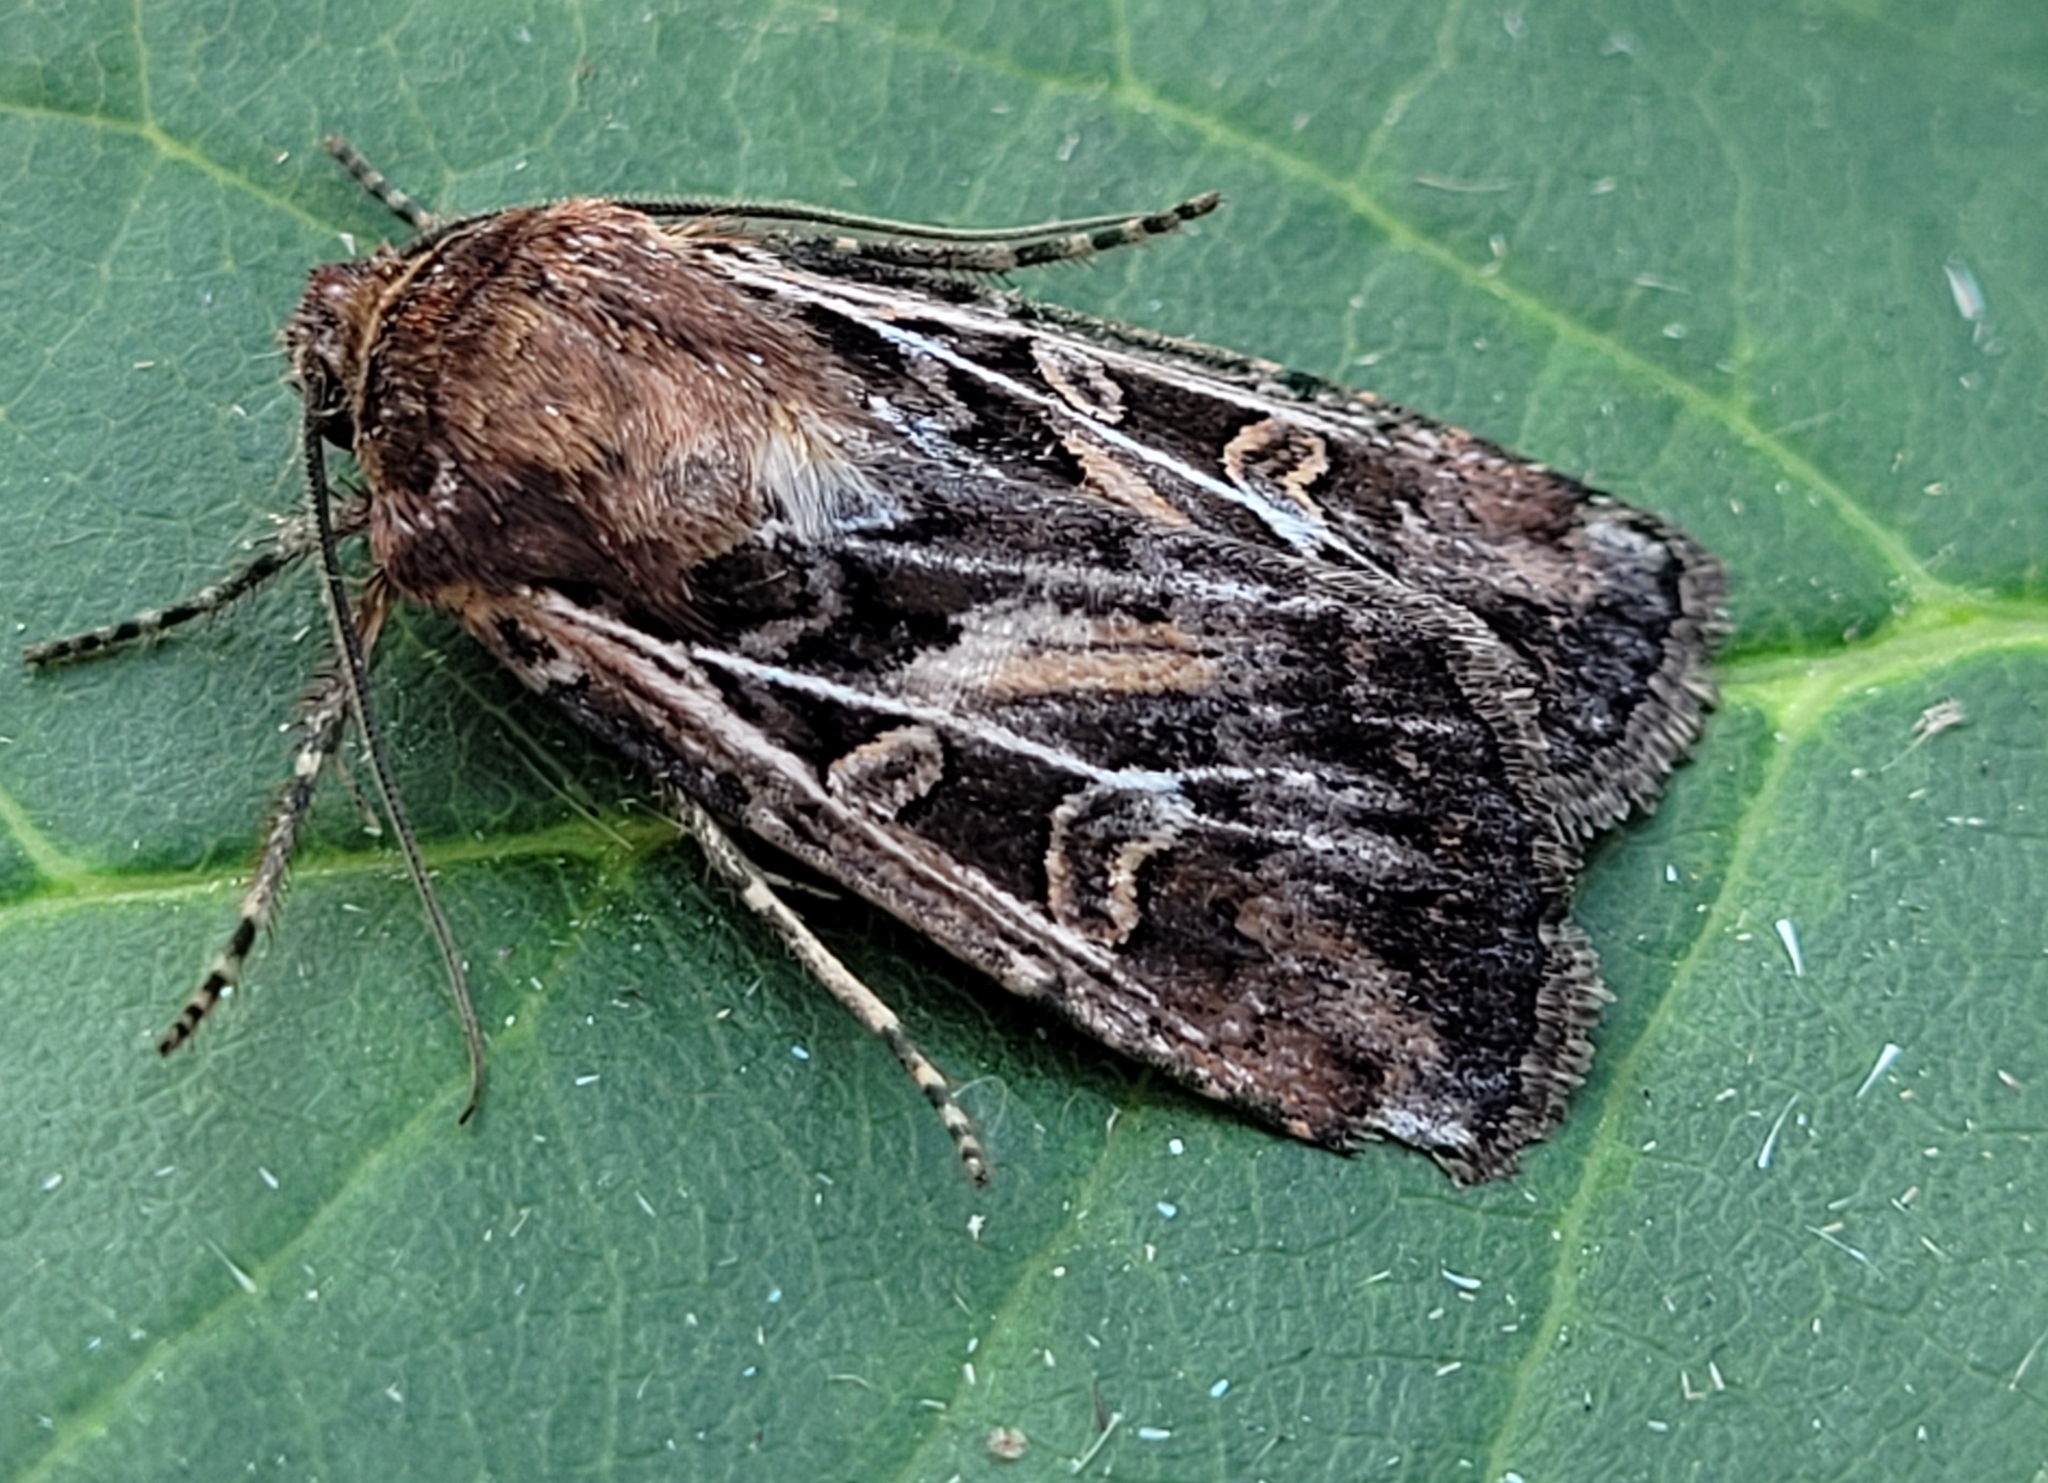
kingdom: Animalia
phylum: Arthropoda
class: Insecta
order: Lepidoptera
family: Noctuidae
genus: Euxoa
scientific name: Euxoa ridingsiana
